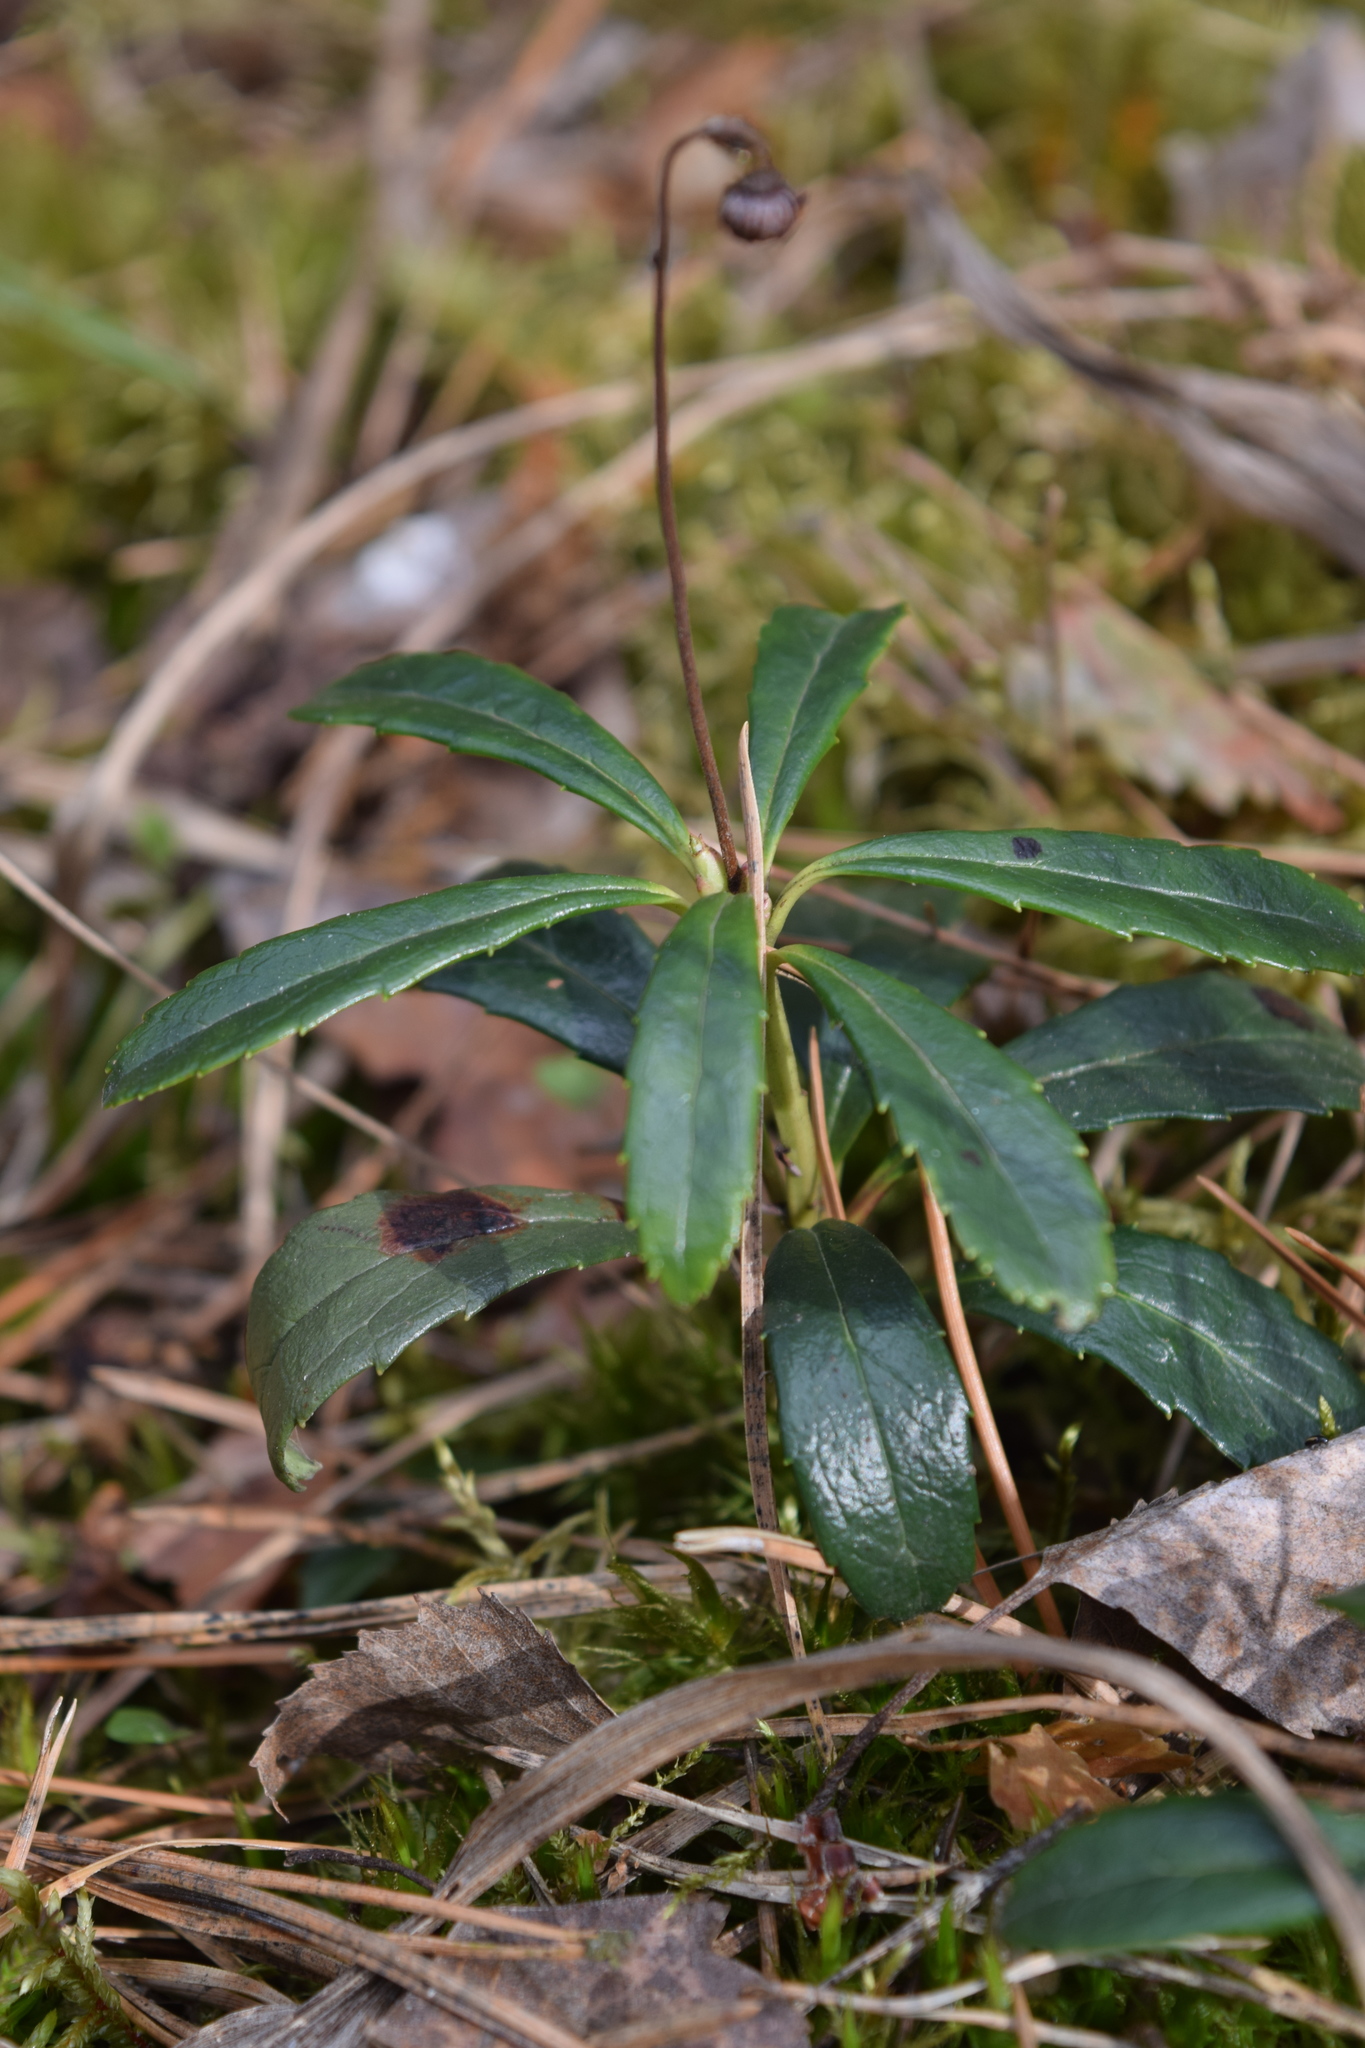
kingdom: Plantae
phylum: Tracheophyta
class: Magnoliopsida
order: Ericales
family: Ericaceae
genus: Chimaphila
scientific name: Chimaphila umbellata
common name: Pipsissewa
